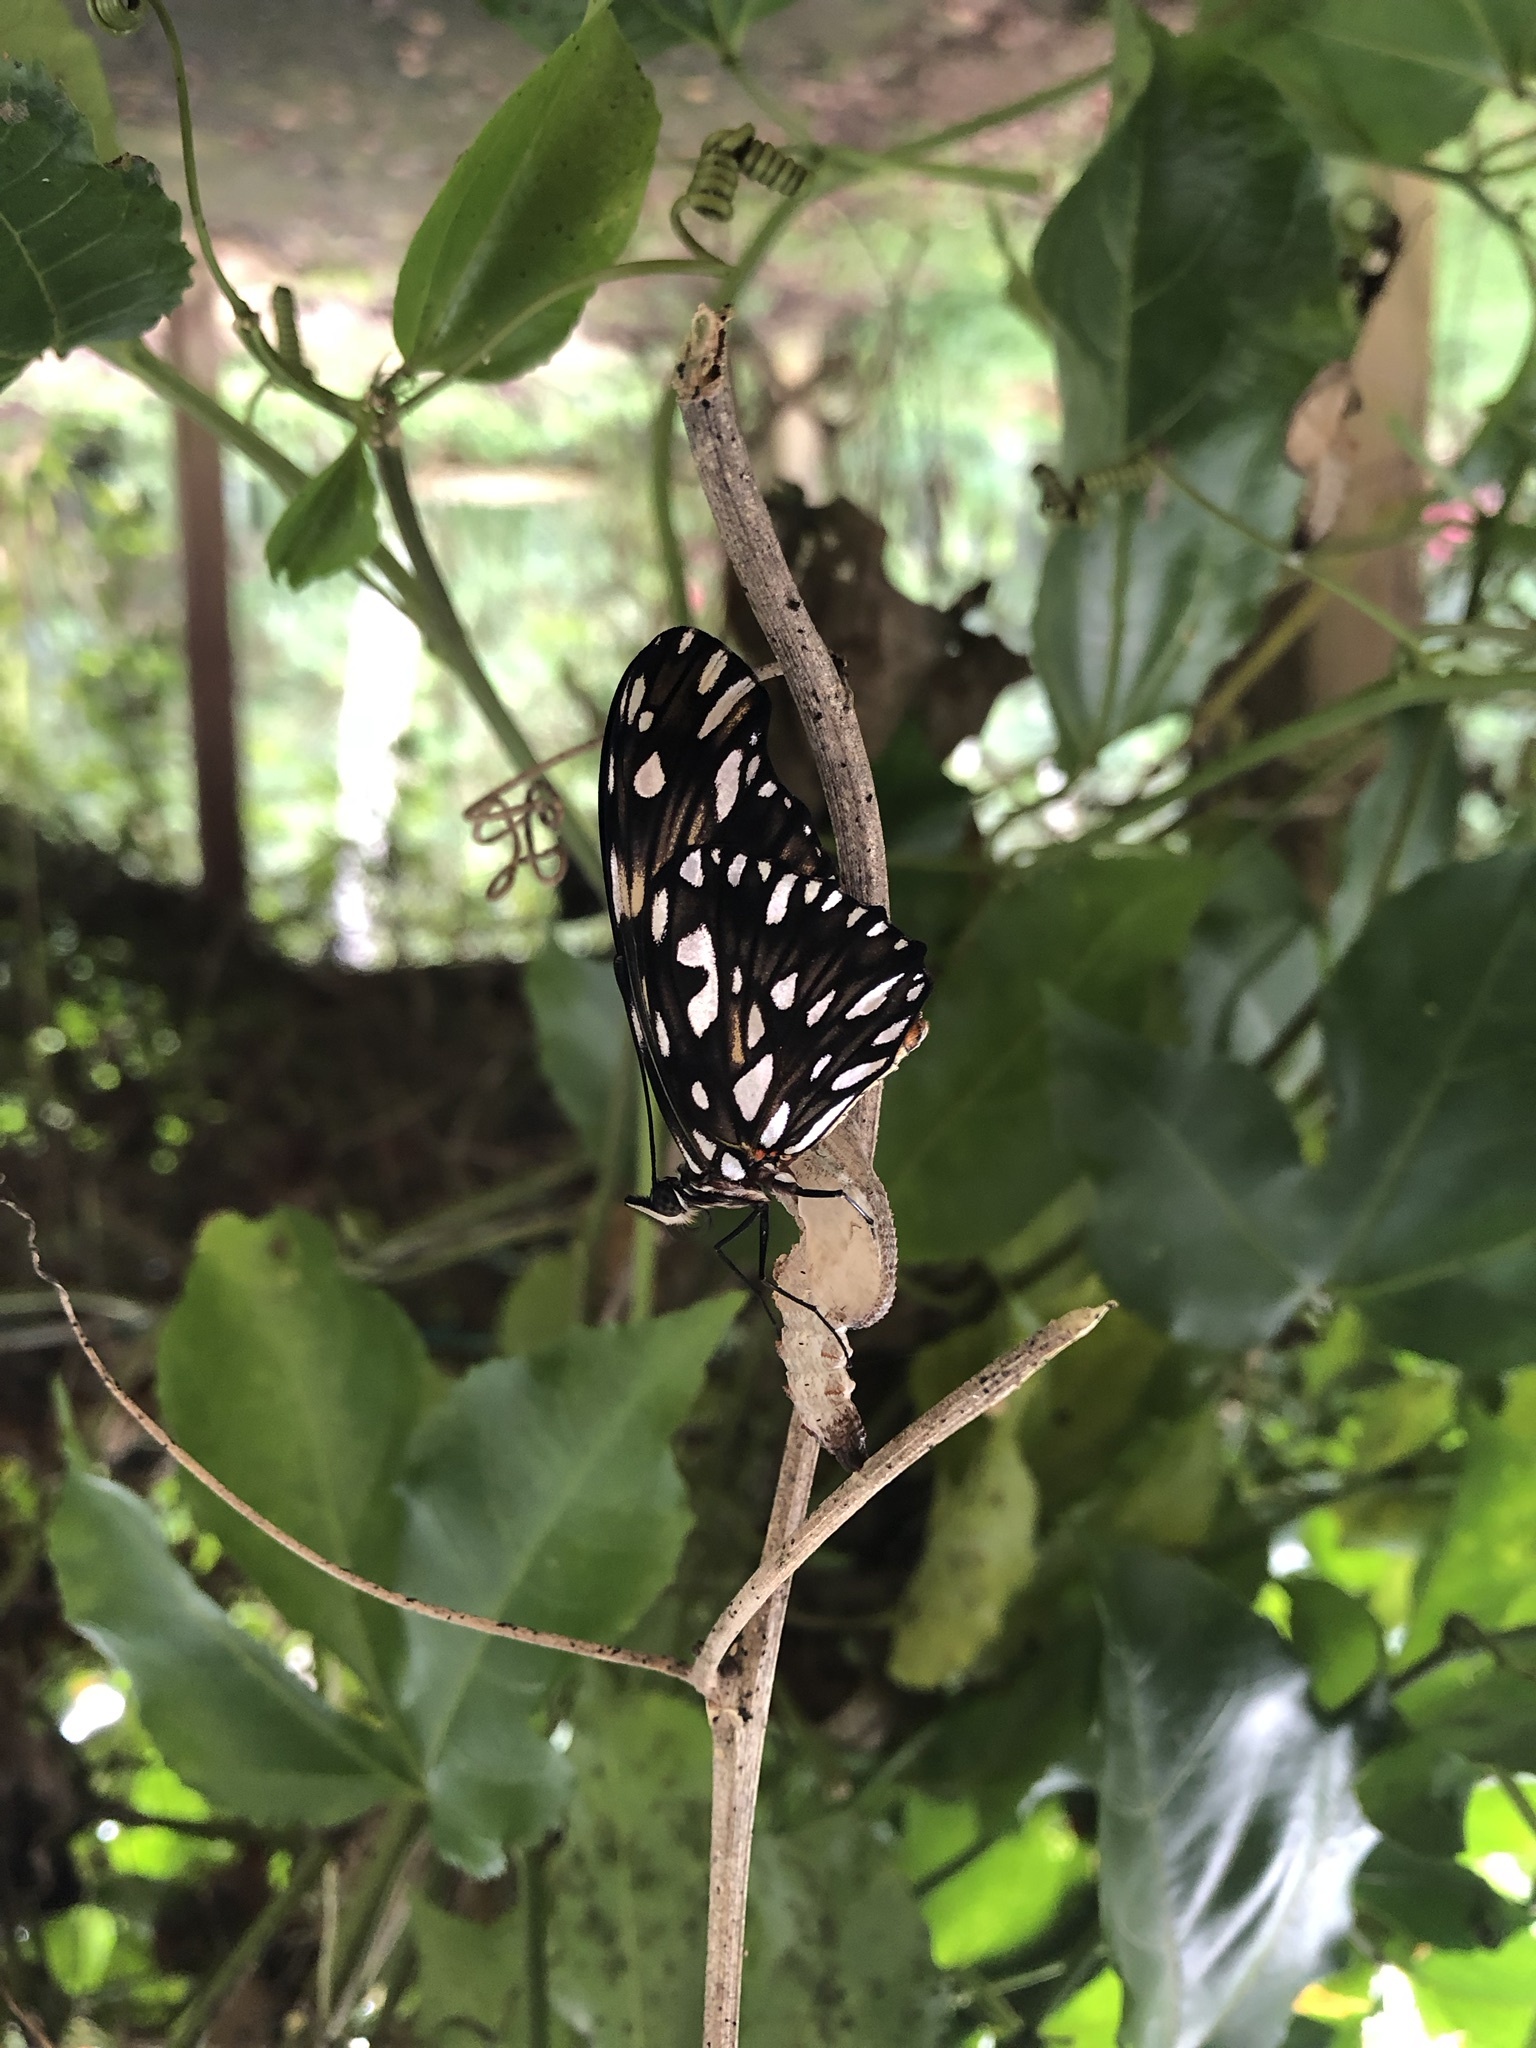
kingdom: Animalia
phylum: Arthropoda
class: Insecta
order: Lepidoptera
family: Nymphalidae
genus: Dione
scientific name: Dione juno
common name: Juno silverspot
